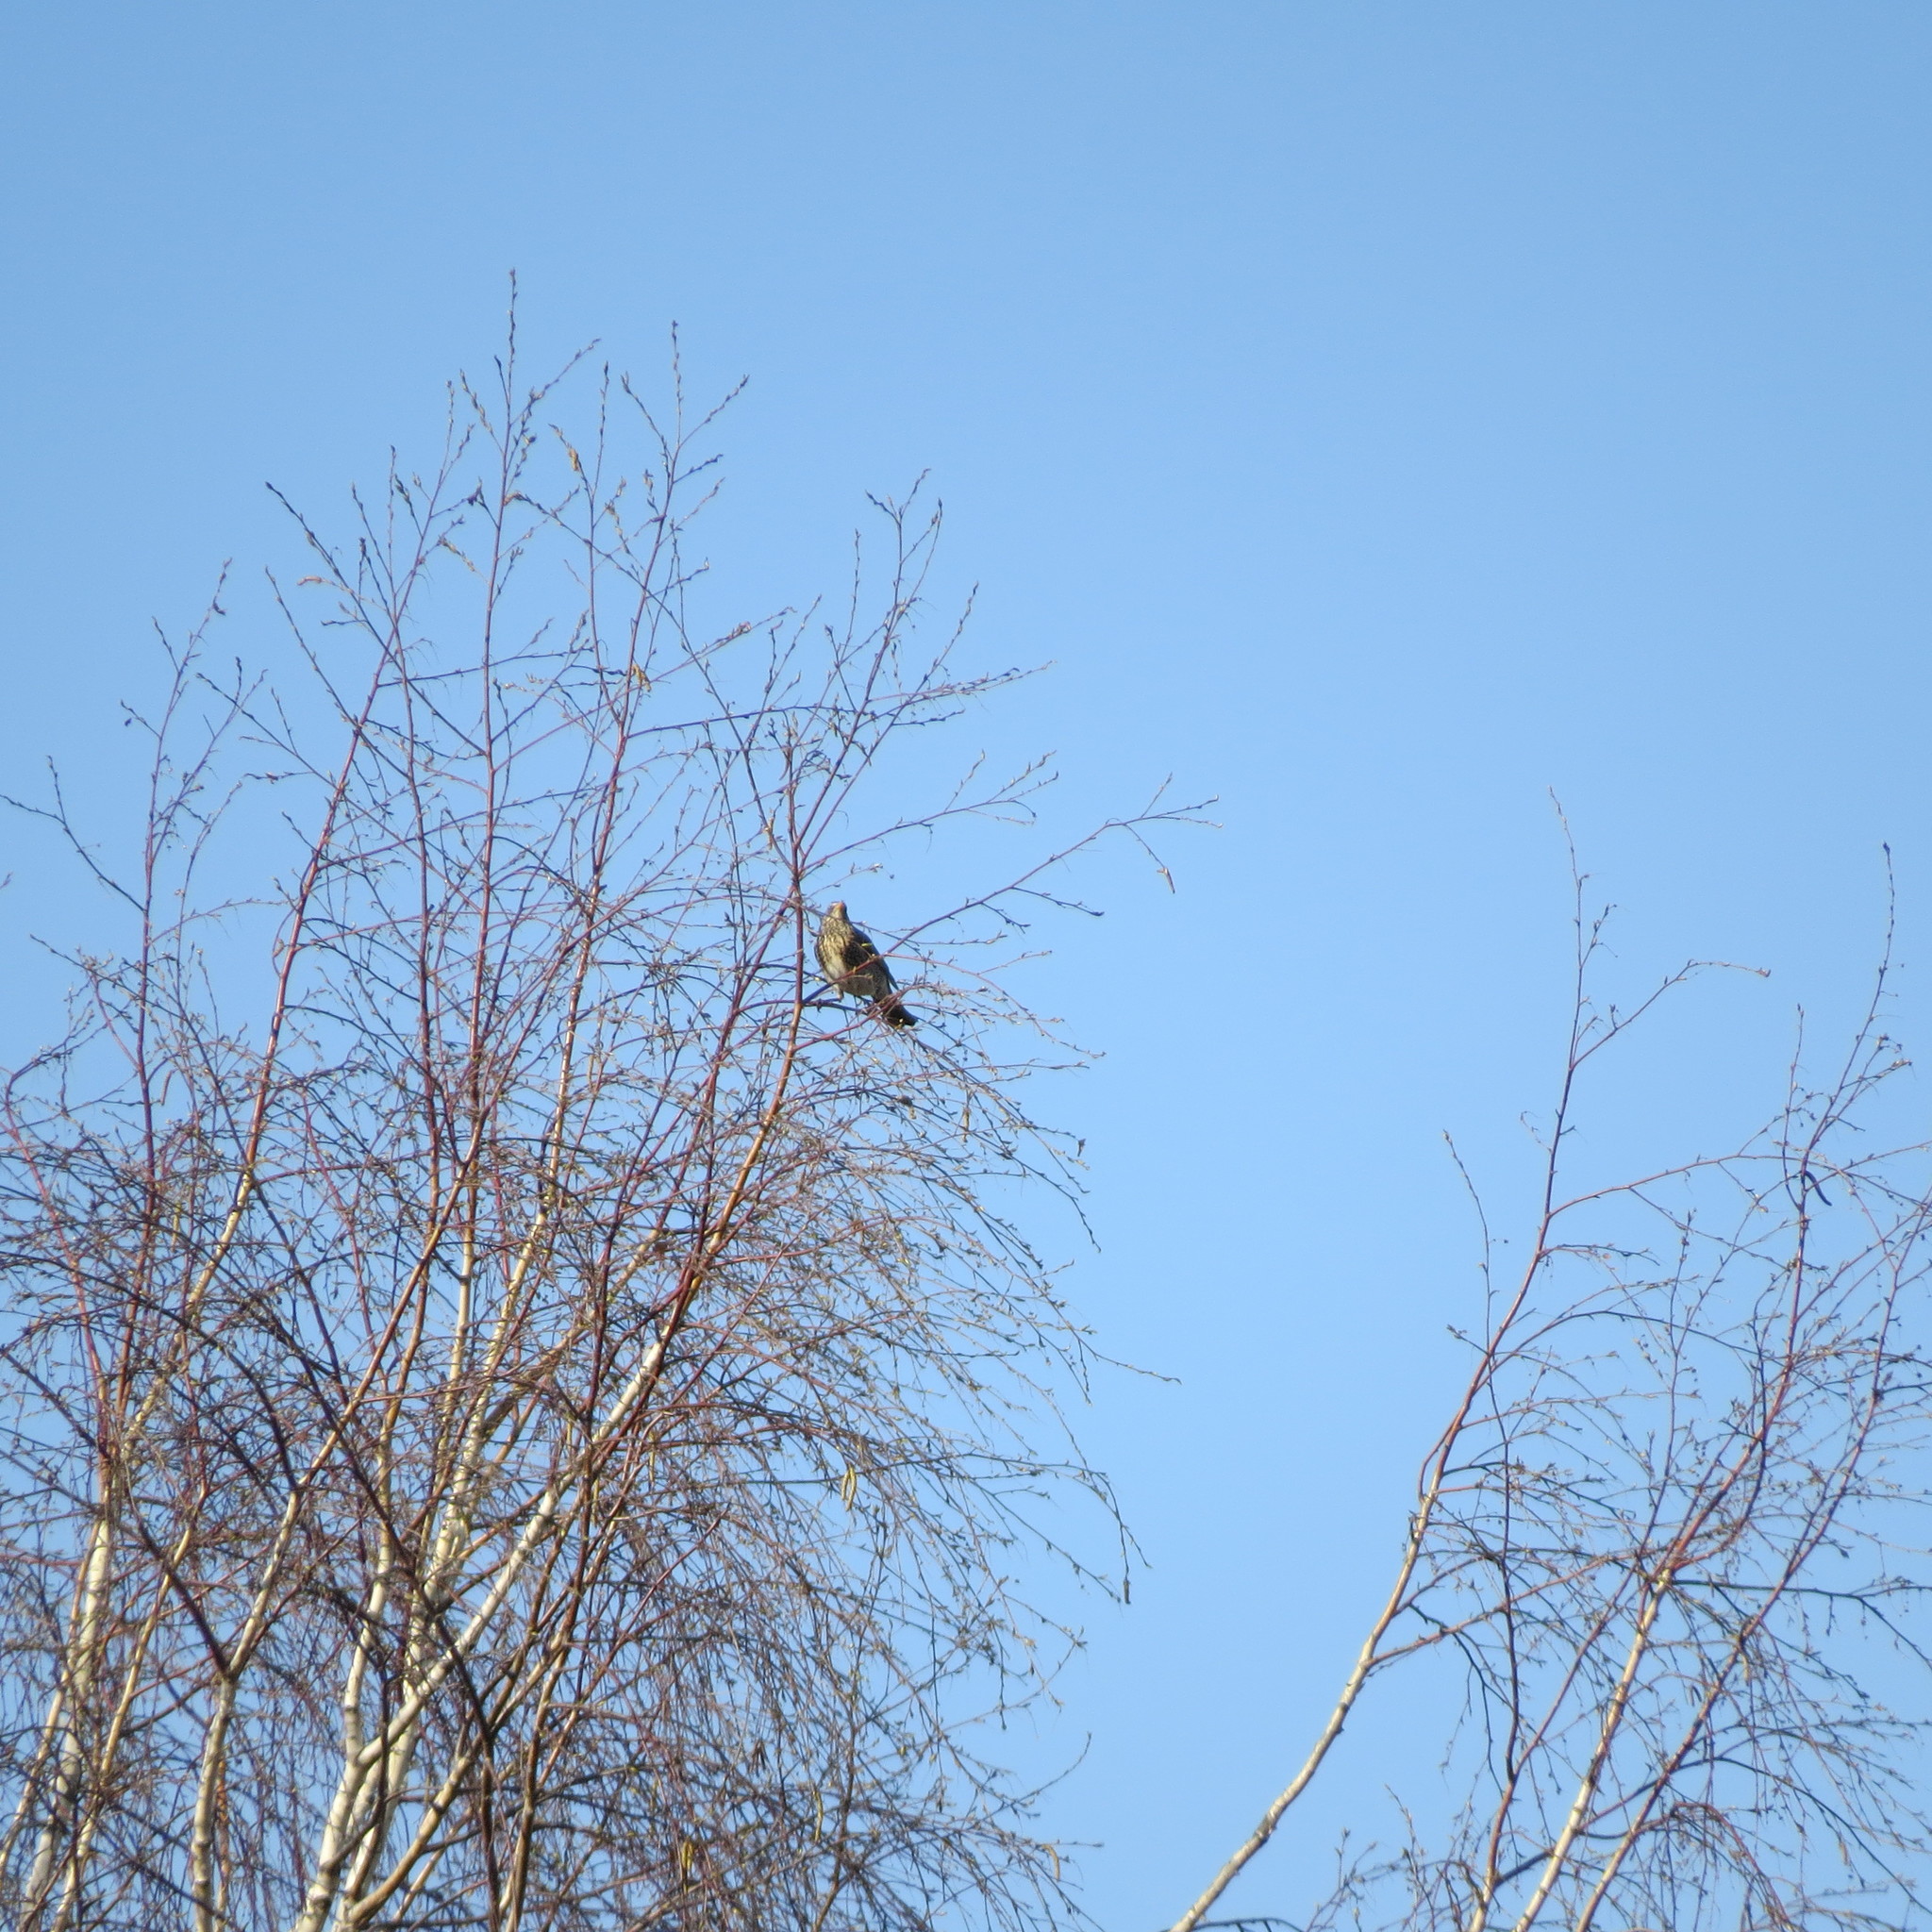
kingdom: Animalia
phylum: Chordata
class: Aves
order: Passeriformes
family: Turdidae
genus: Turdus
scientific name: Turdus pilaris
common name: Fieldfare
